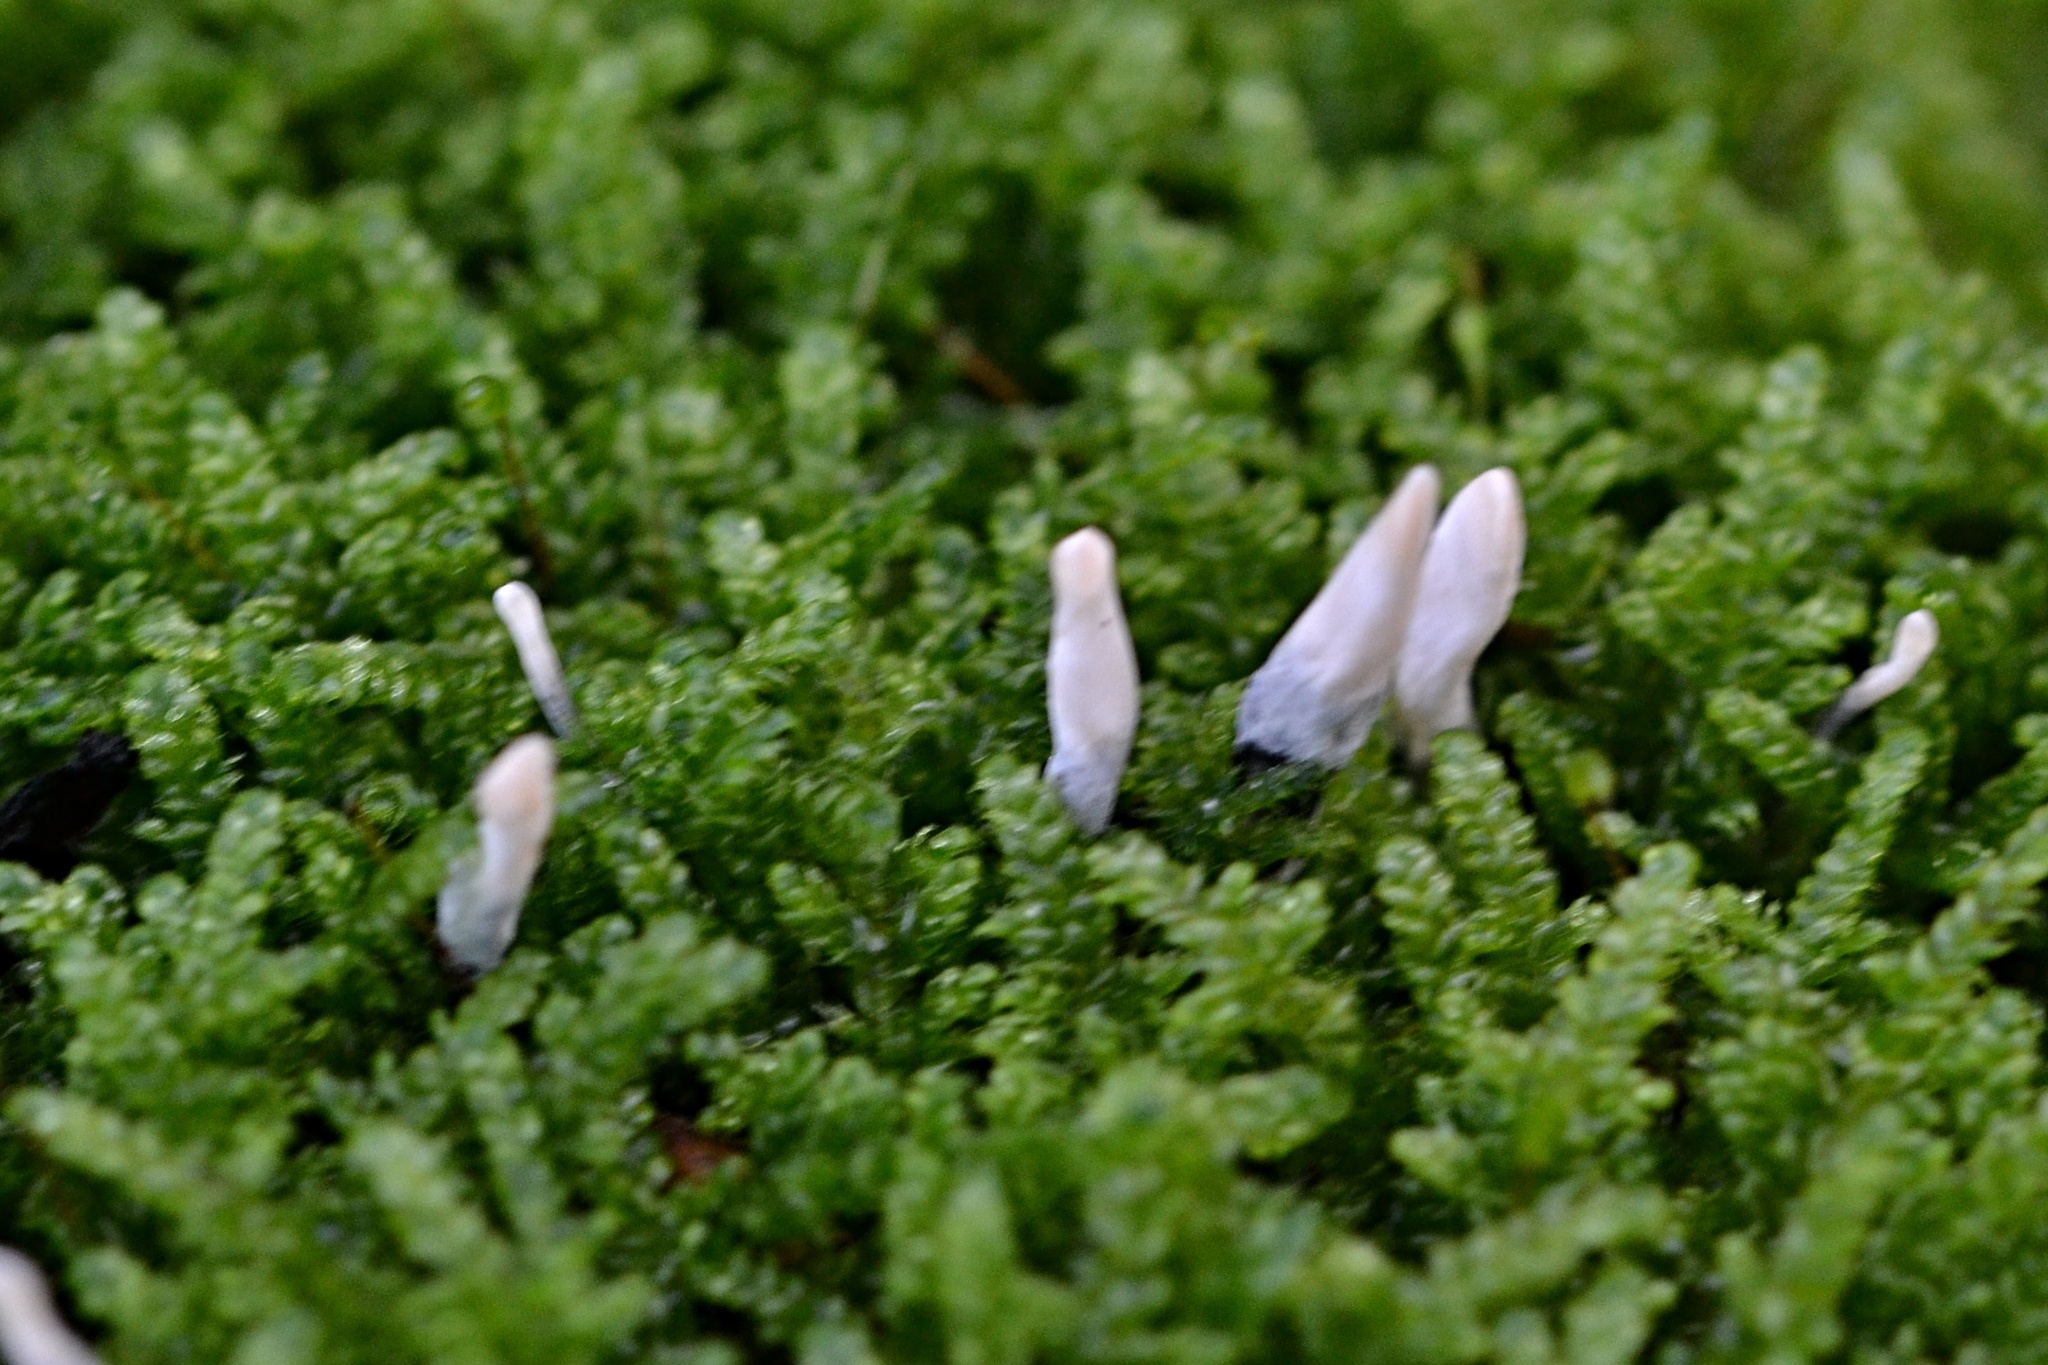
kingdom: Fungi
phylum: Ascomycota
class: Sordariomycetes
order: Xylariales
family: Xylariaceae
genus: Xylaria
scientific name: Xylaria hypoxylon
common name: Candle-snuff fungus
